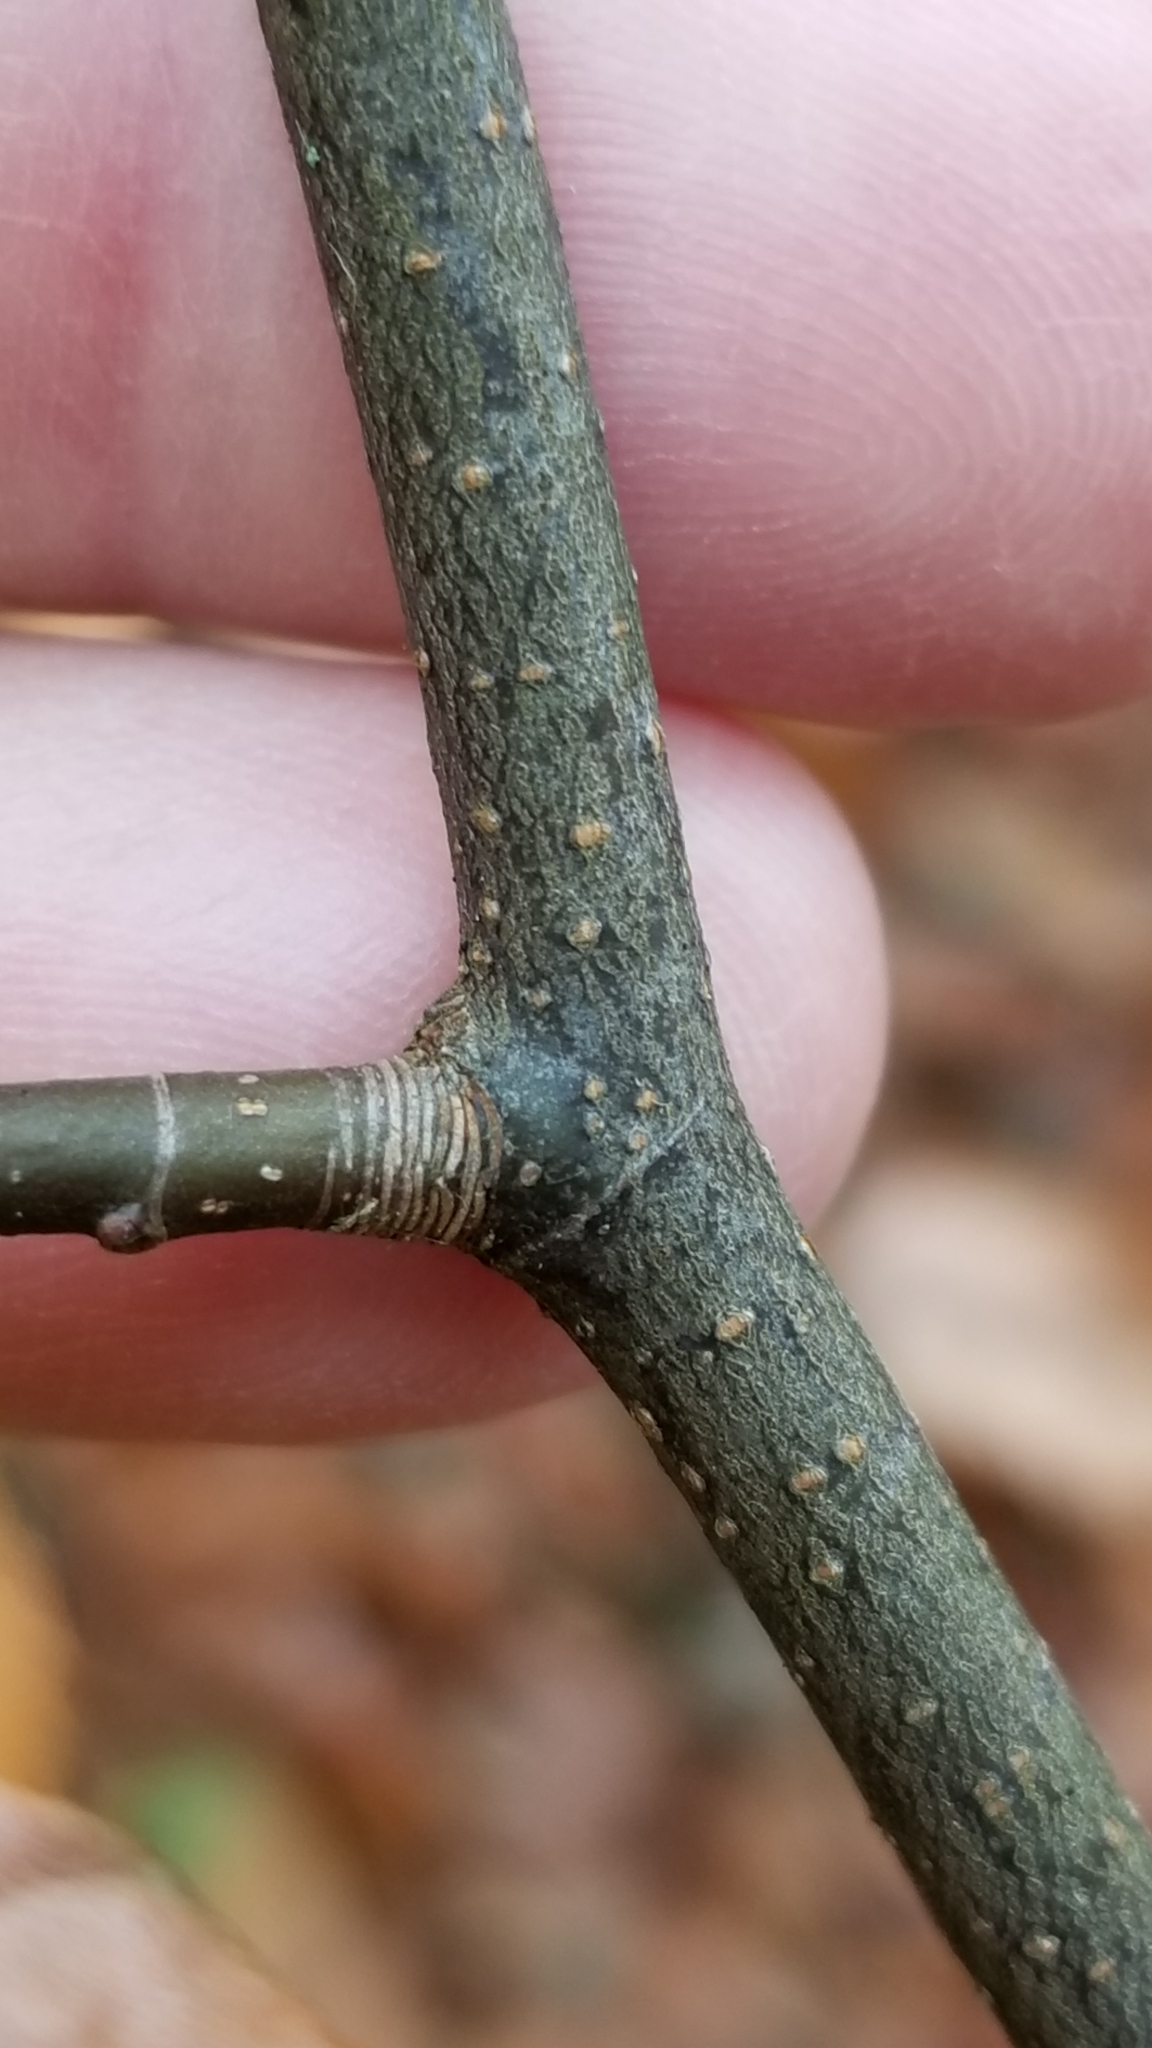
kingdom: Plantae
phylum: Tracheophyta
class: Magnoliopsida
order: Fagales
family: Fagaceae
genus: Fagus
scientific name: Fagus grandifolia
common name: American beech
